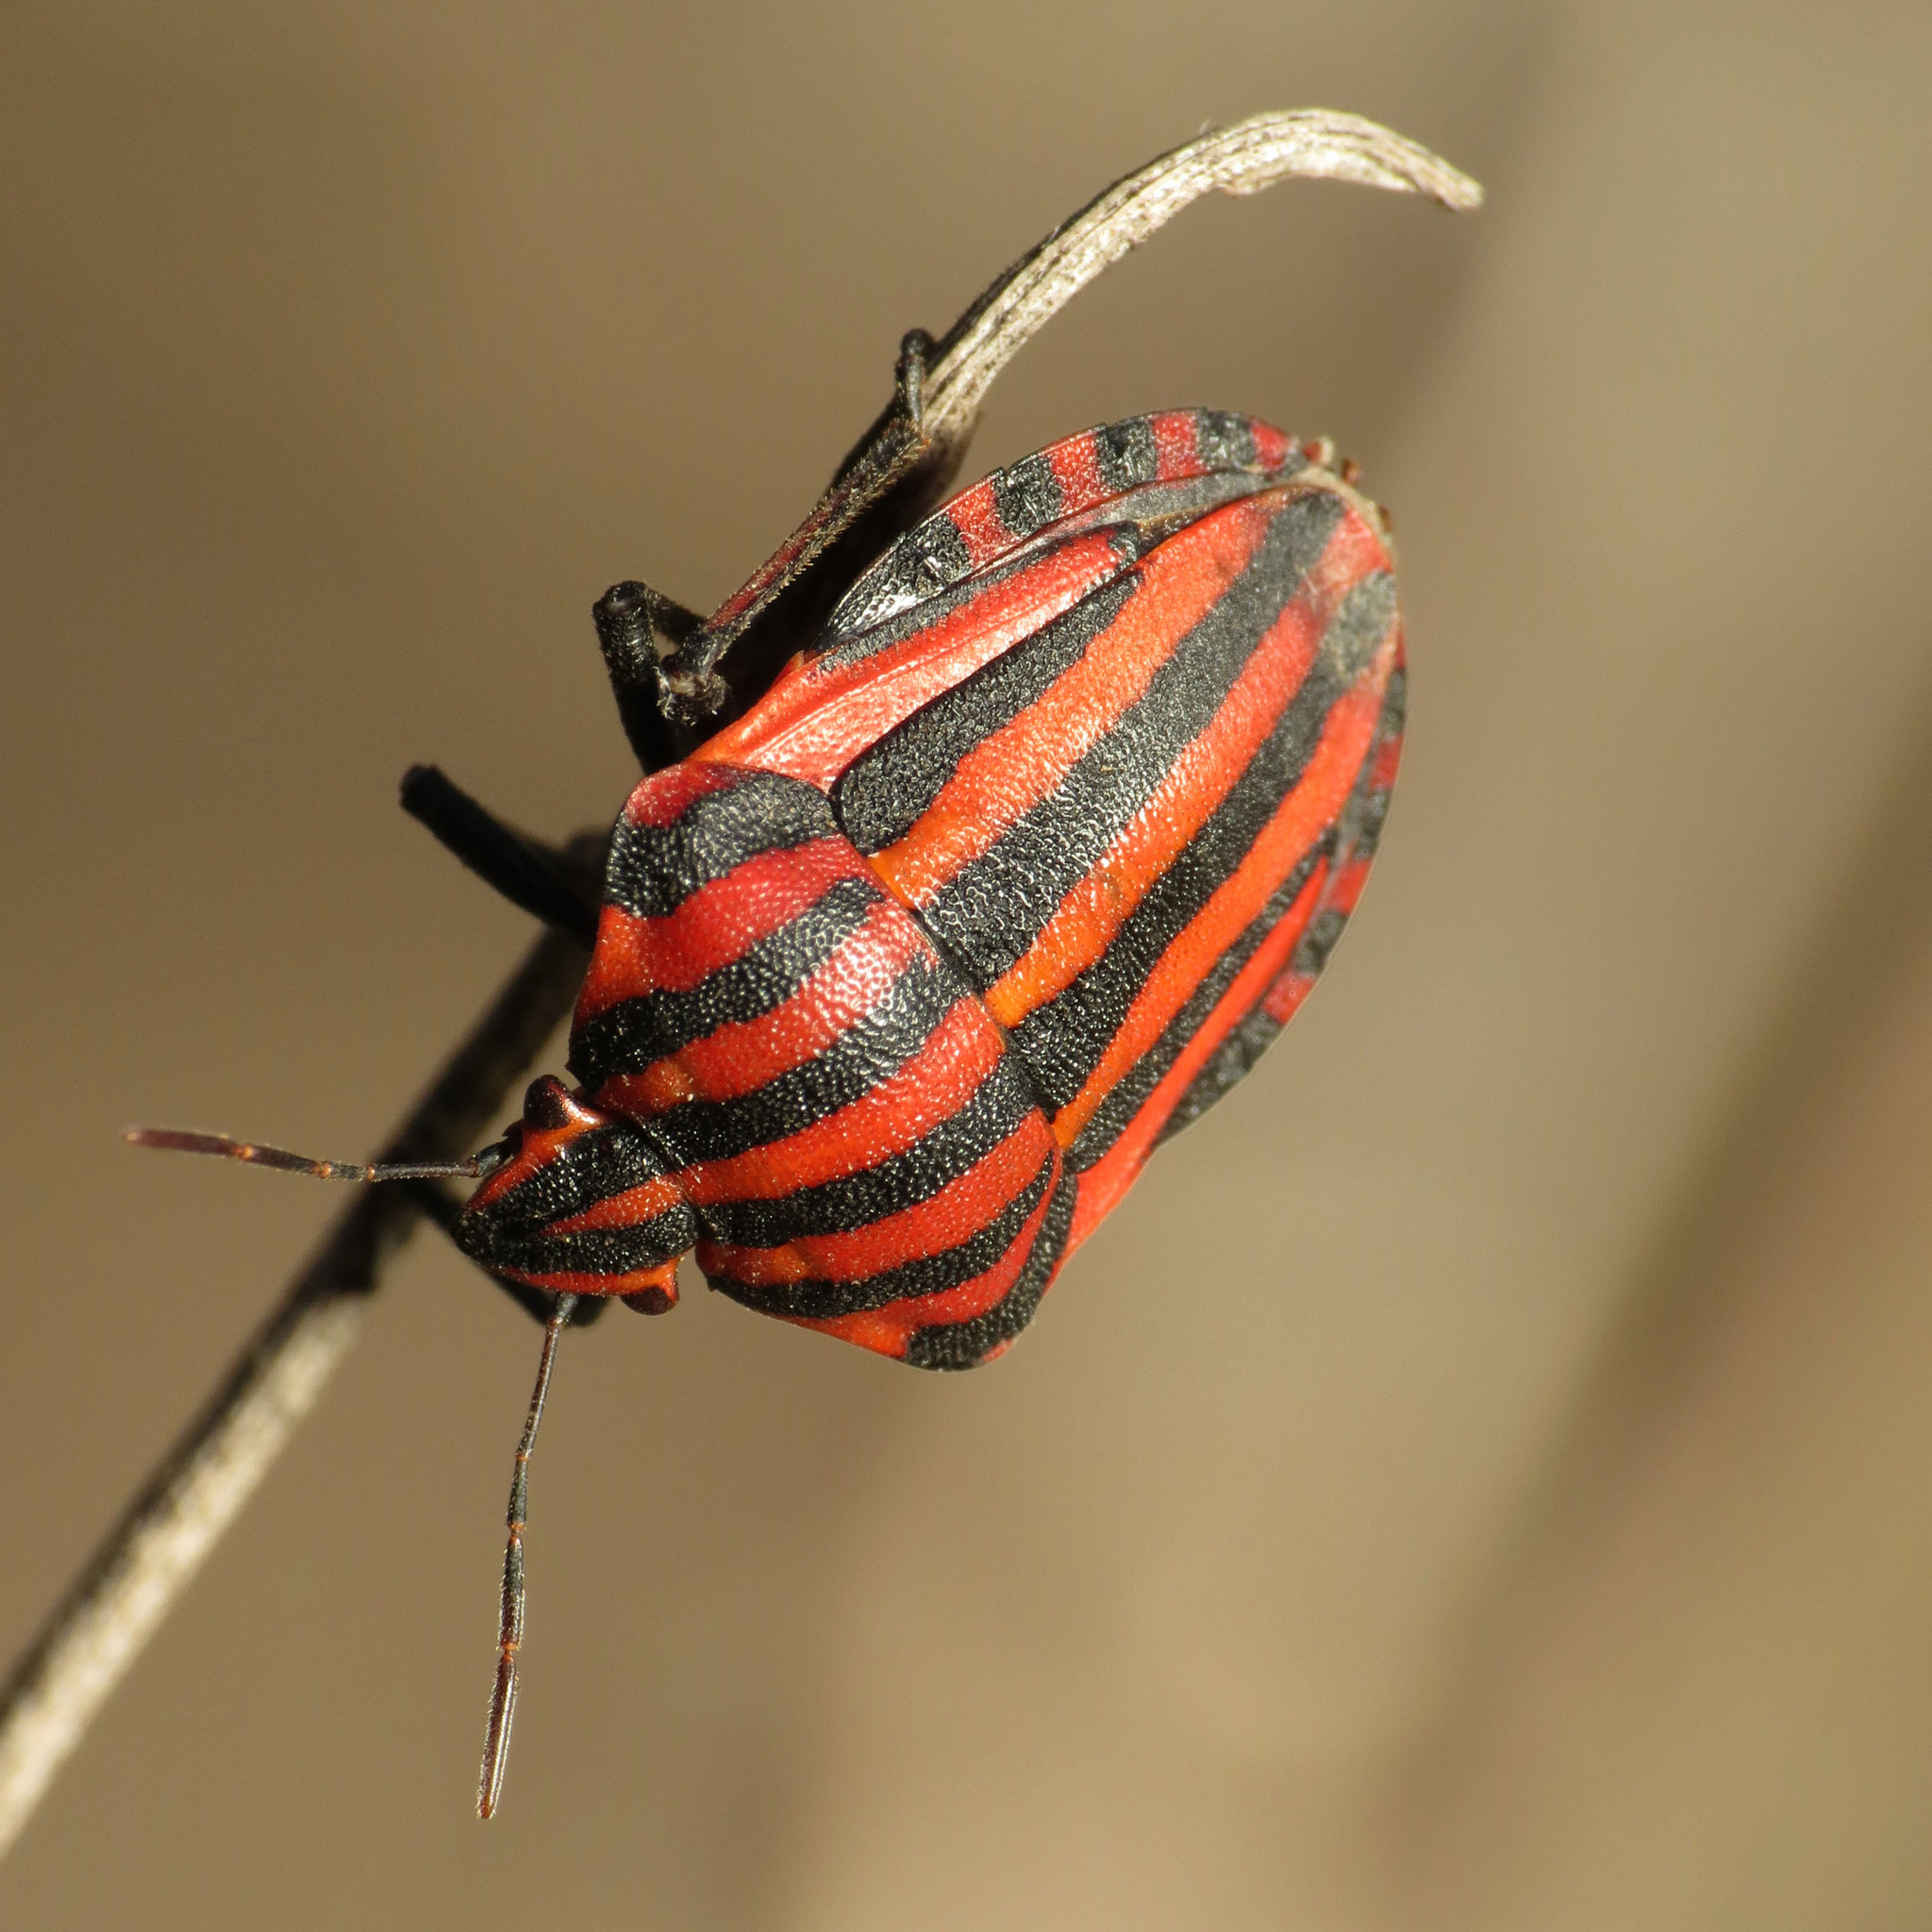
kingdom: Animalia
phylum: Arthropoda
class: Insecta
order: Hemiptera
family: Pentatomidae
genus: Graphosoma
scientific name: Graphosoma italicum
